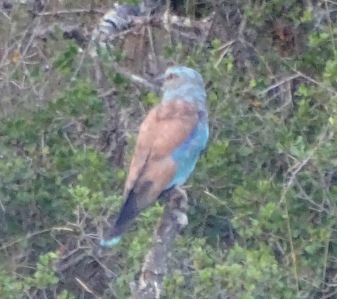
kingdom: Animalia
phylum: Chordata
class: Aves
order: Coraciiformes
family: Coraciidae
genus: Coracias
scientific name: Coracias garrulus
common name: European roller
